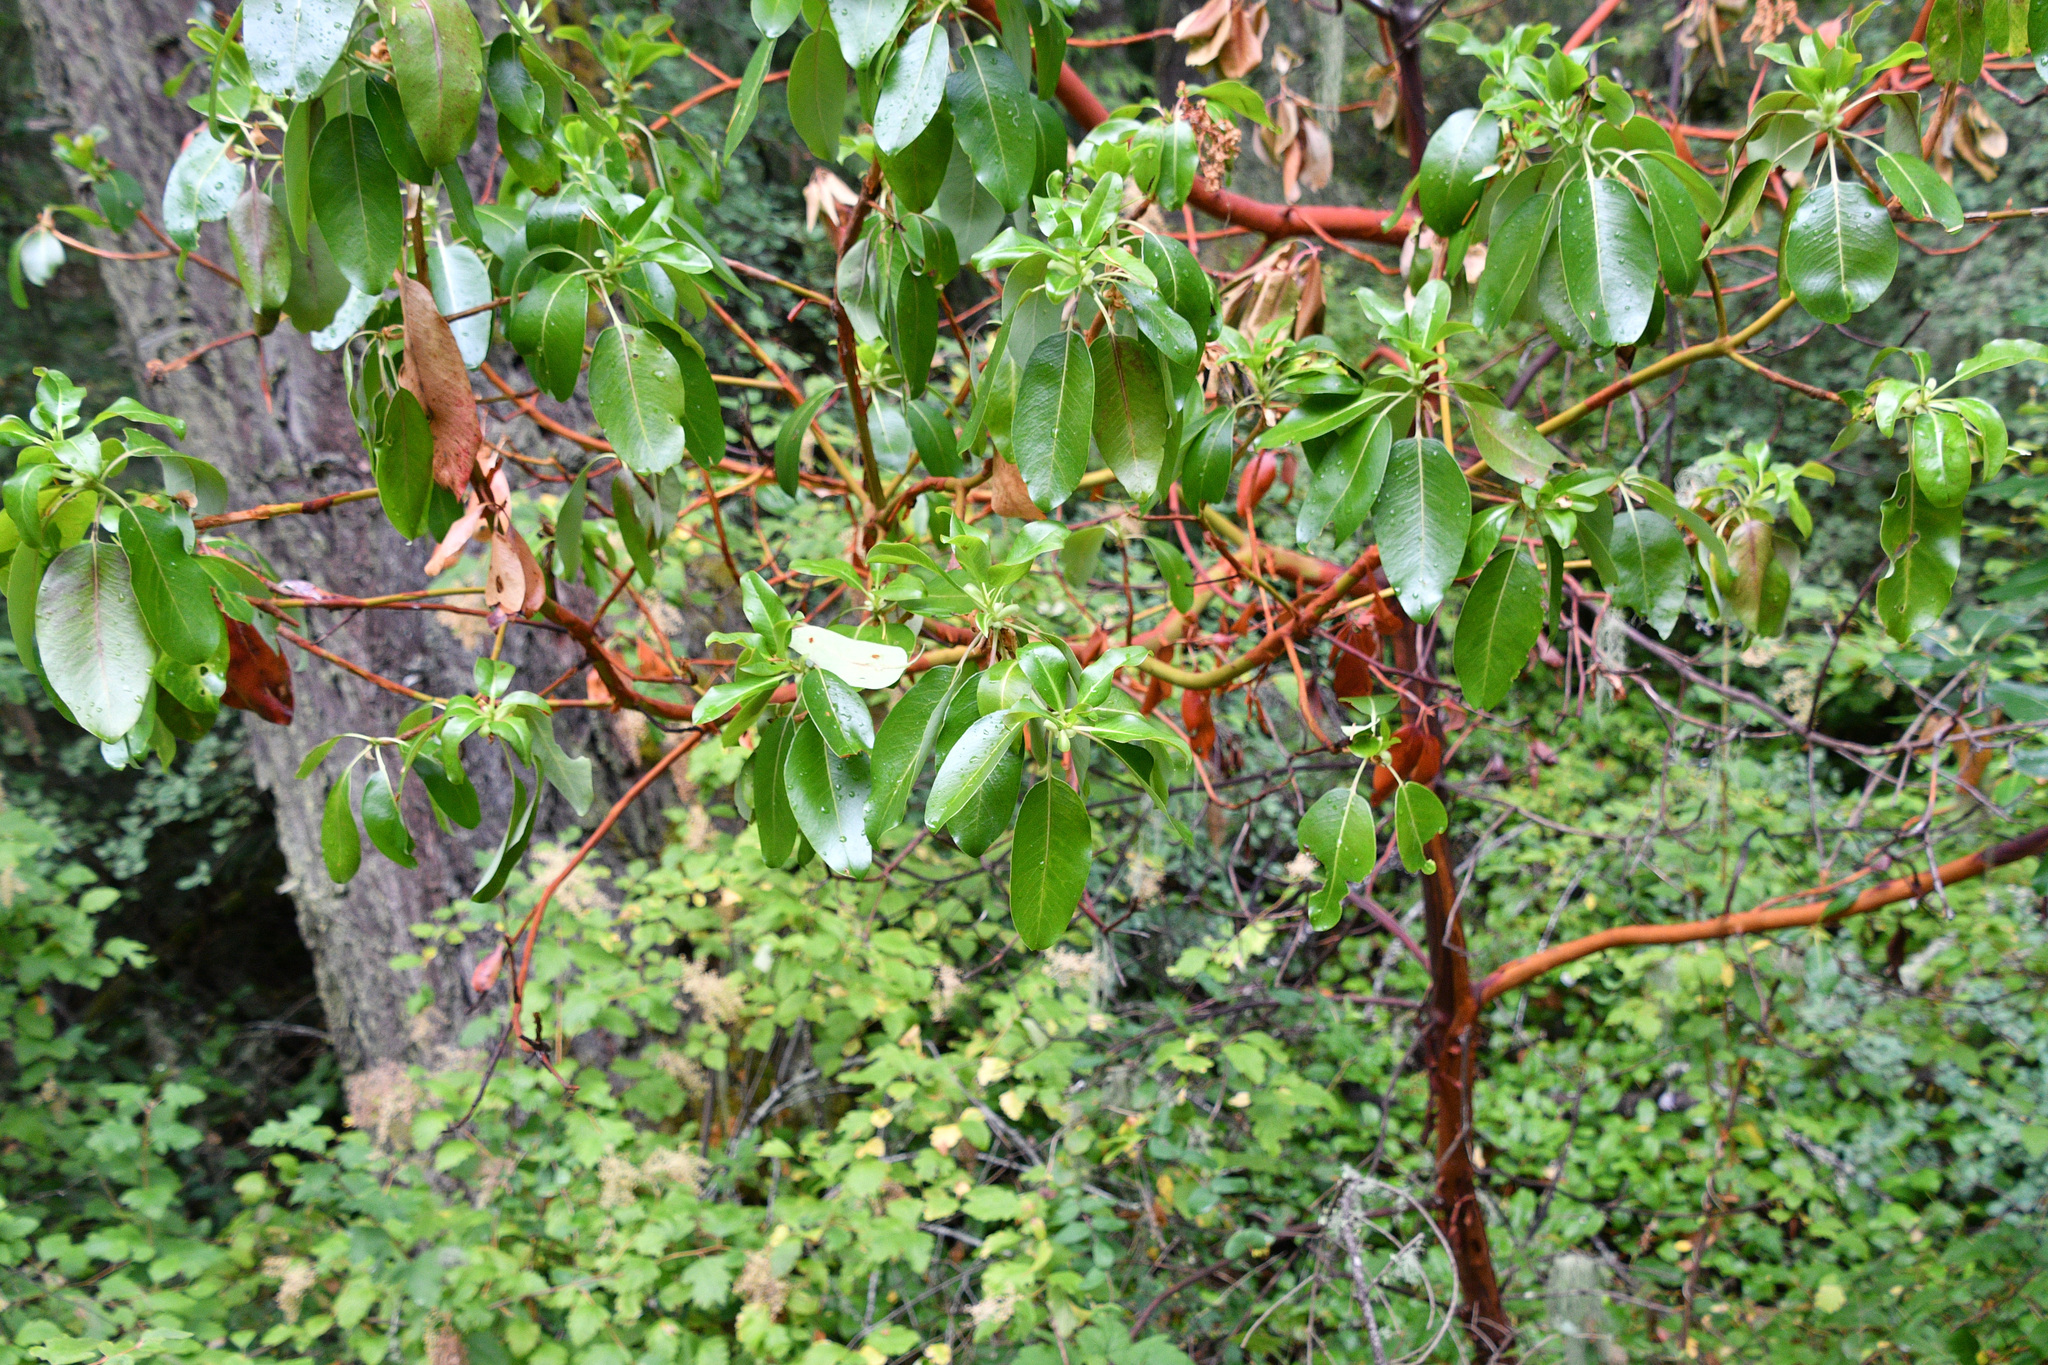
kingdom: Plantae
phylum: Tracheophyta
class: Magnoliopsida
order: Ericales
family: Ericaceae
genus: Arbutus
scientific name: Arbutus menziesii
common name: Pacific madrone
